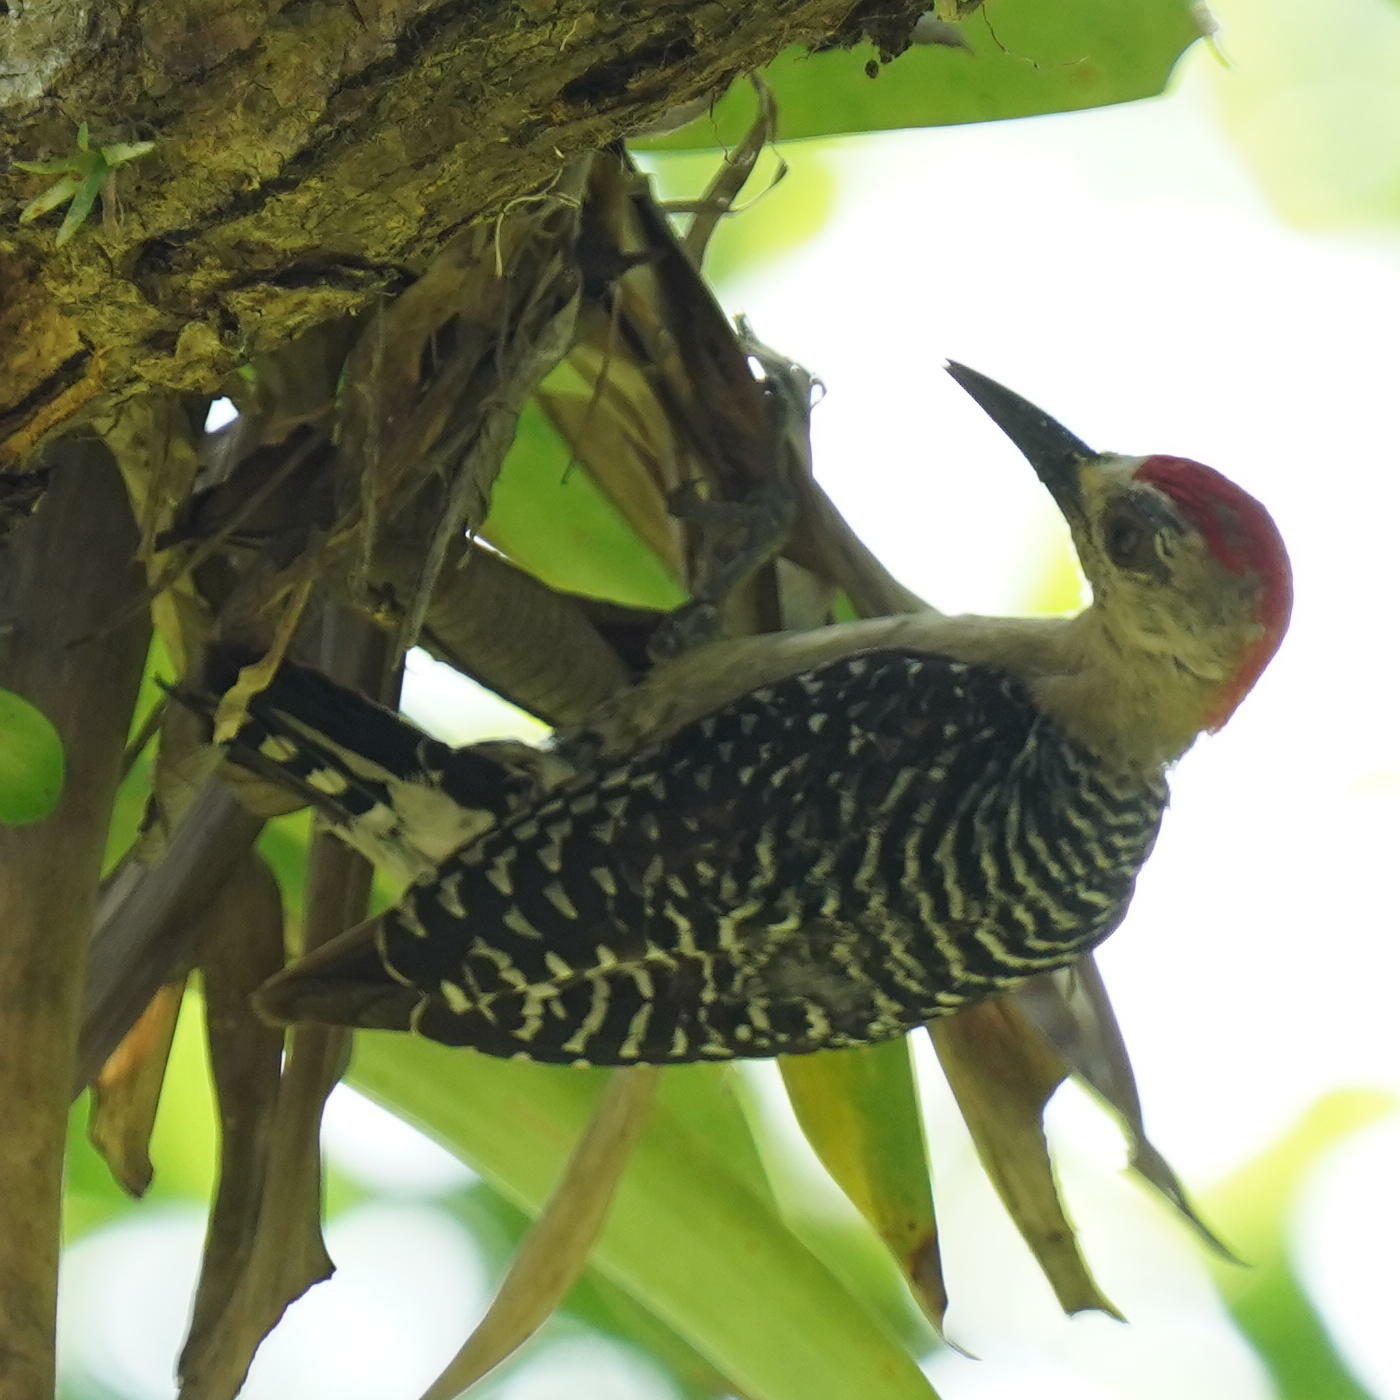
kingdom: Animalia
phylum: Chordata
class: Aves
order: Piciformes
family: Picidae
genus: Melanerpes
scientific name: Melanerpes rubricapillus
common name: Red-crowned woodpecker
